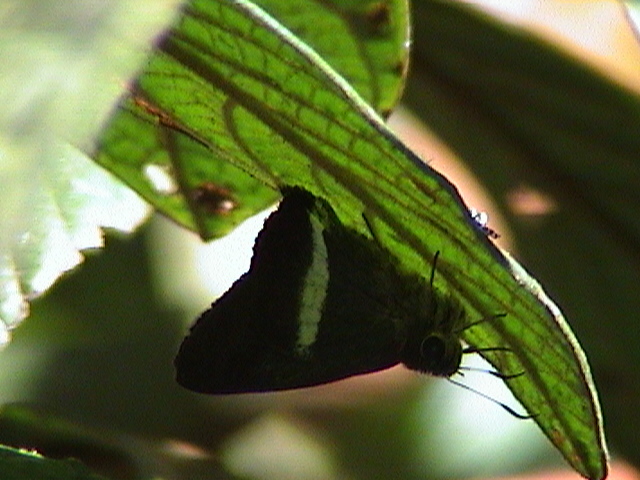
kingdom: Animalia
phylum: Arthropoda
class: Insecta
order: Lepidoptera
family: Hesperiidae
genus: Hasora
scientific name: Hasora taminatus
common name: White banded awl
